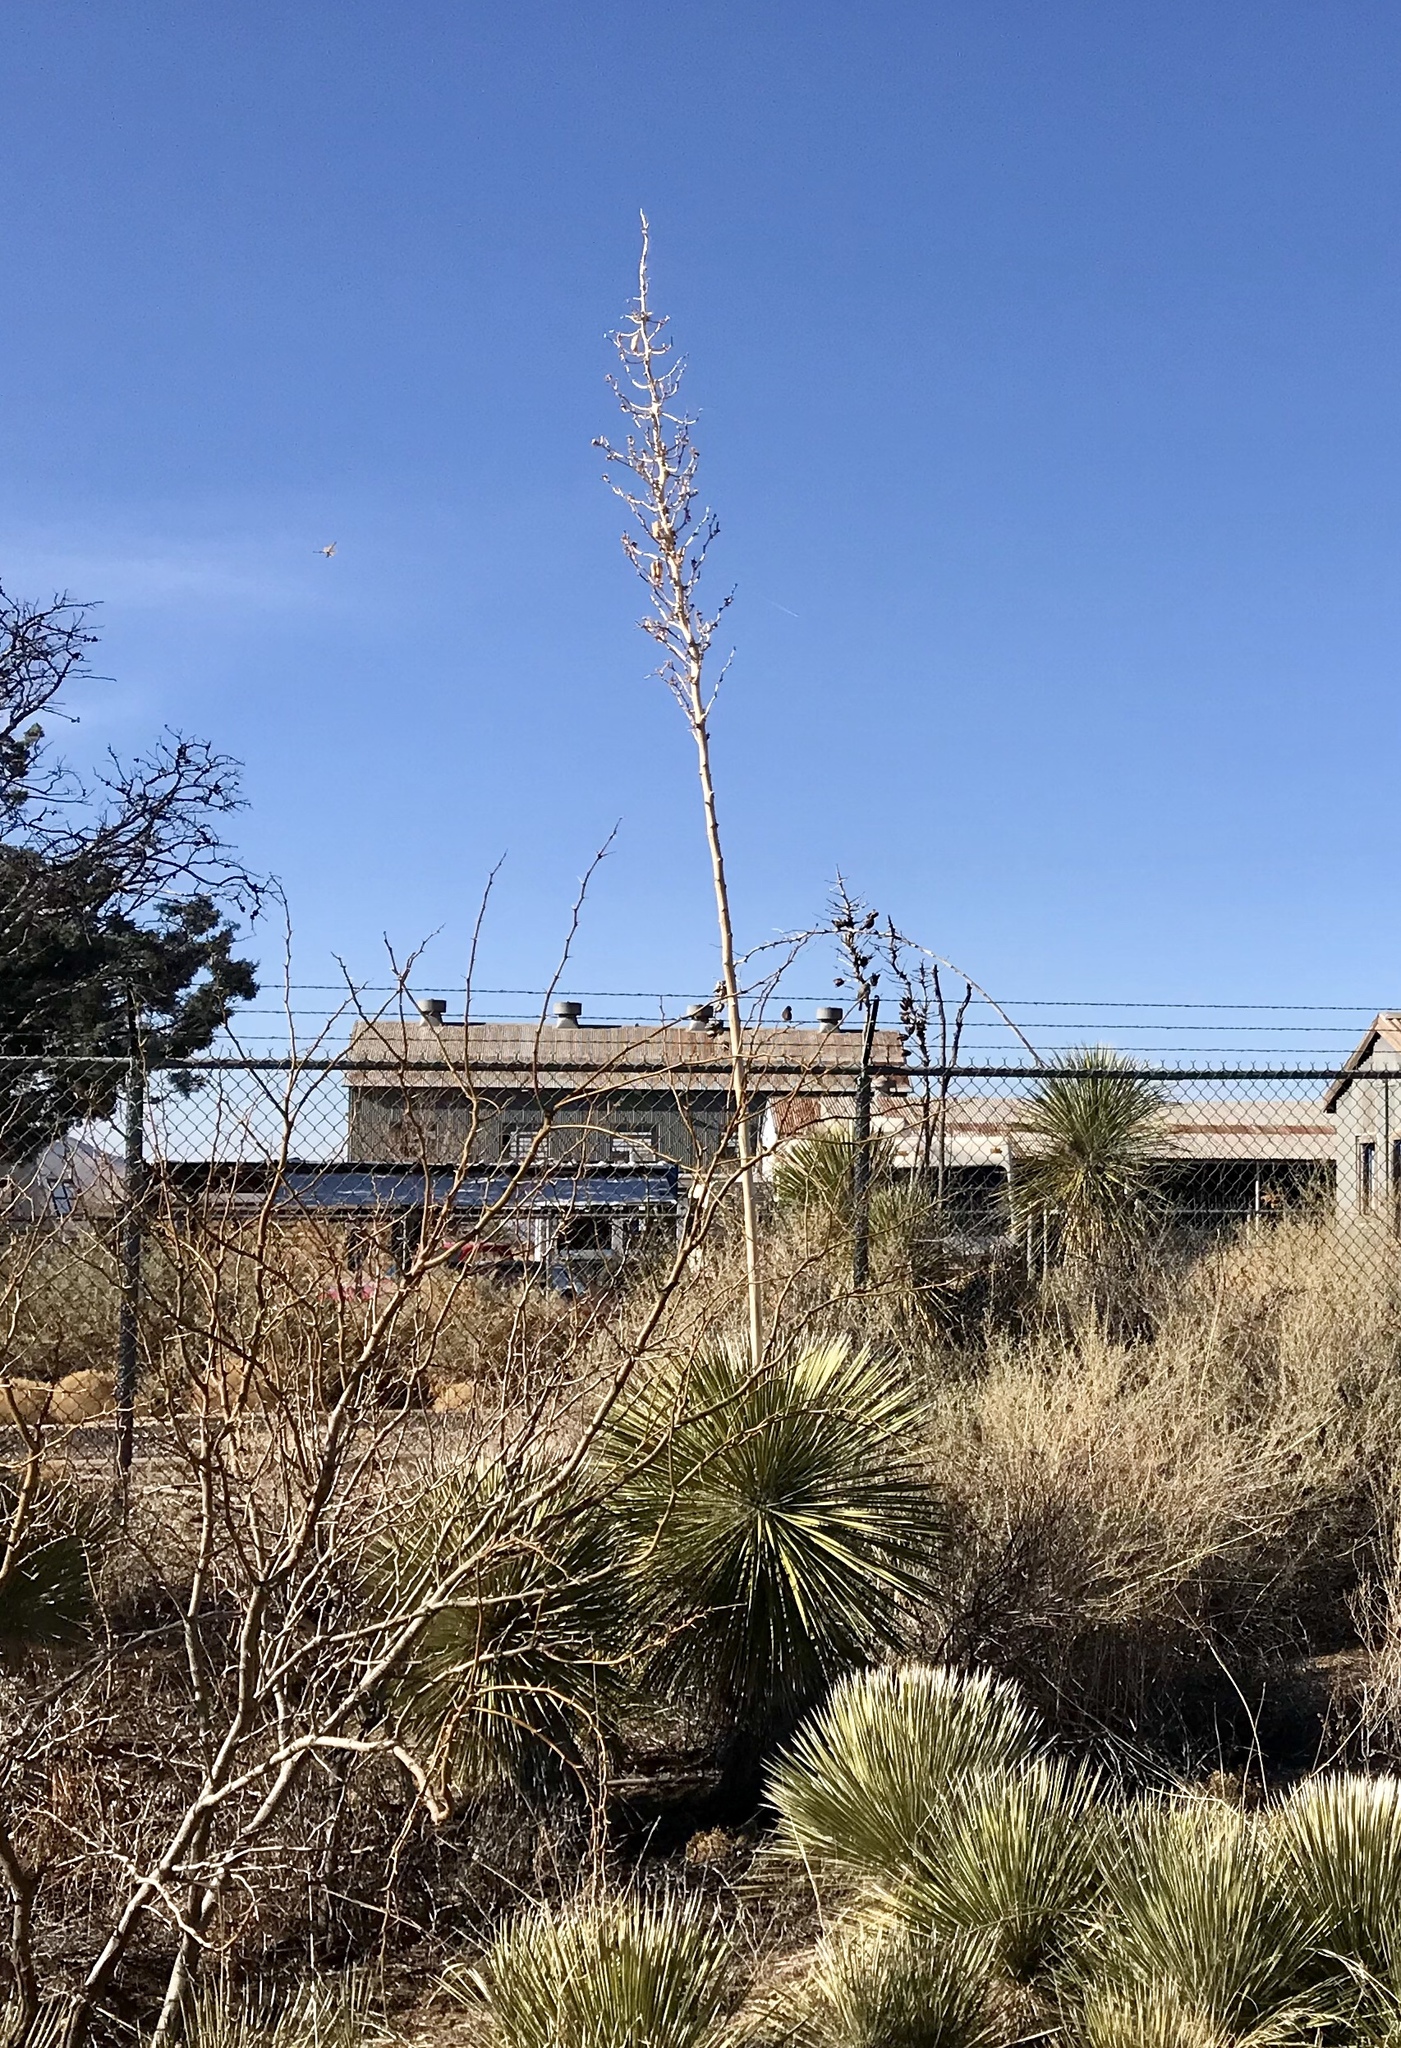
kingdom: Plantae
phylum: Tracheophyta
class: Liliopsida
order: Asparagales
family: Asparagaceae
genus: Yucca
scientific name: Yucca elata
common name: Palmella
